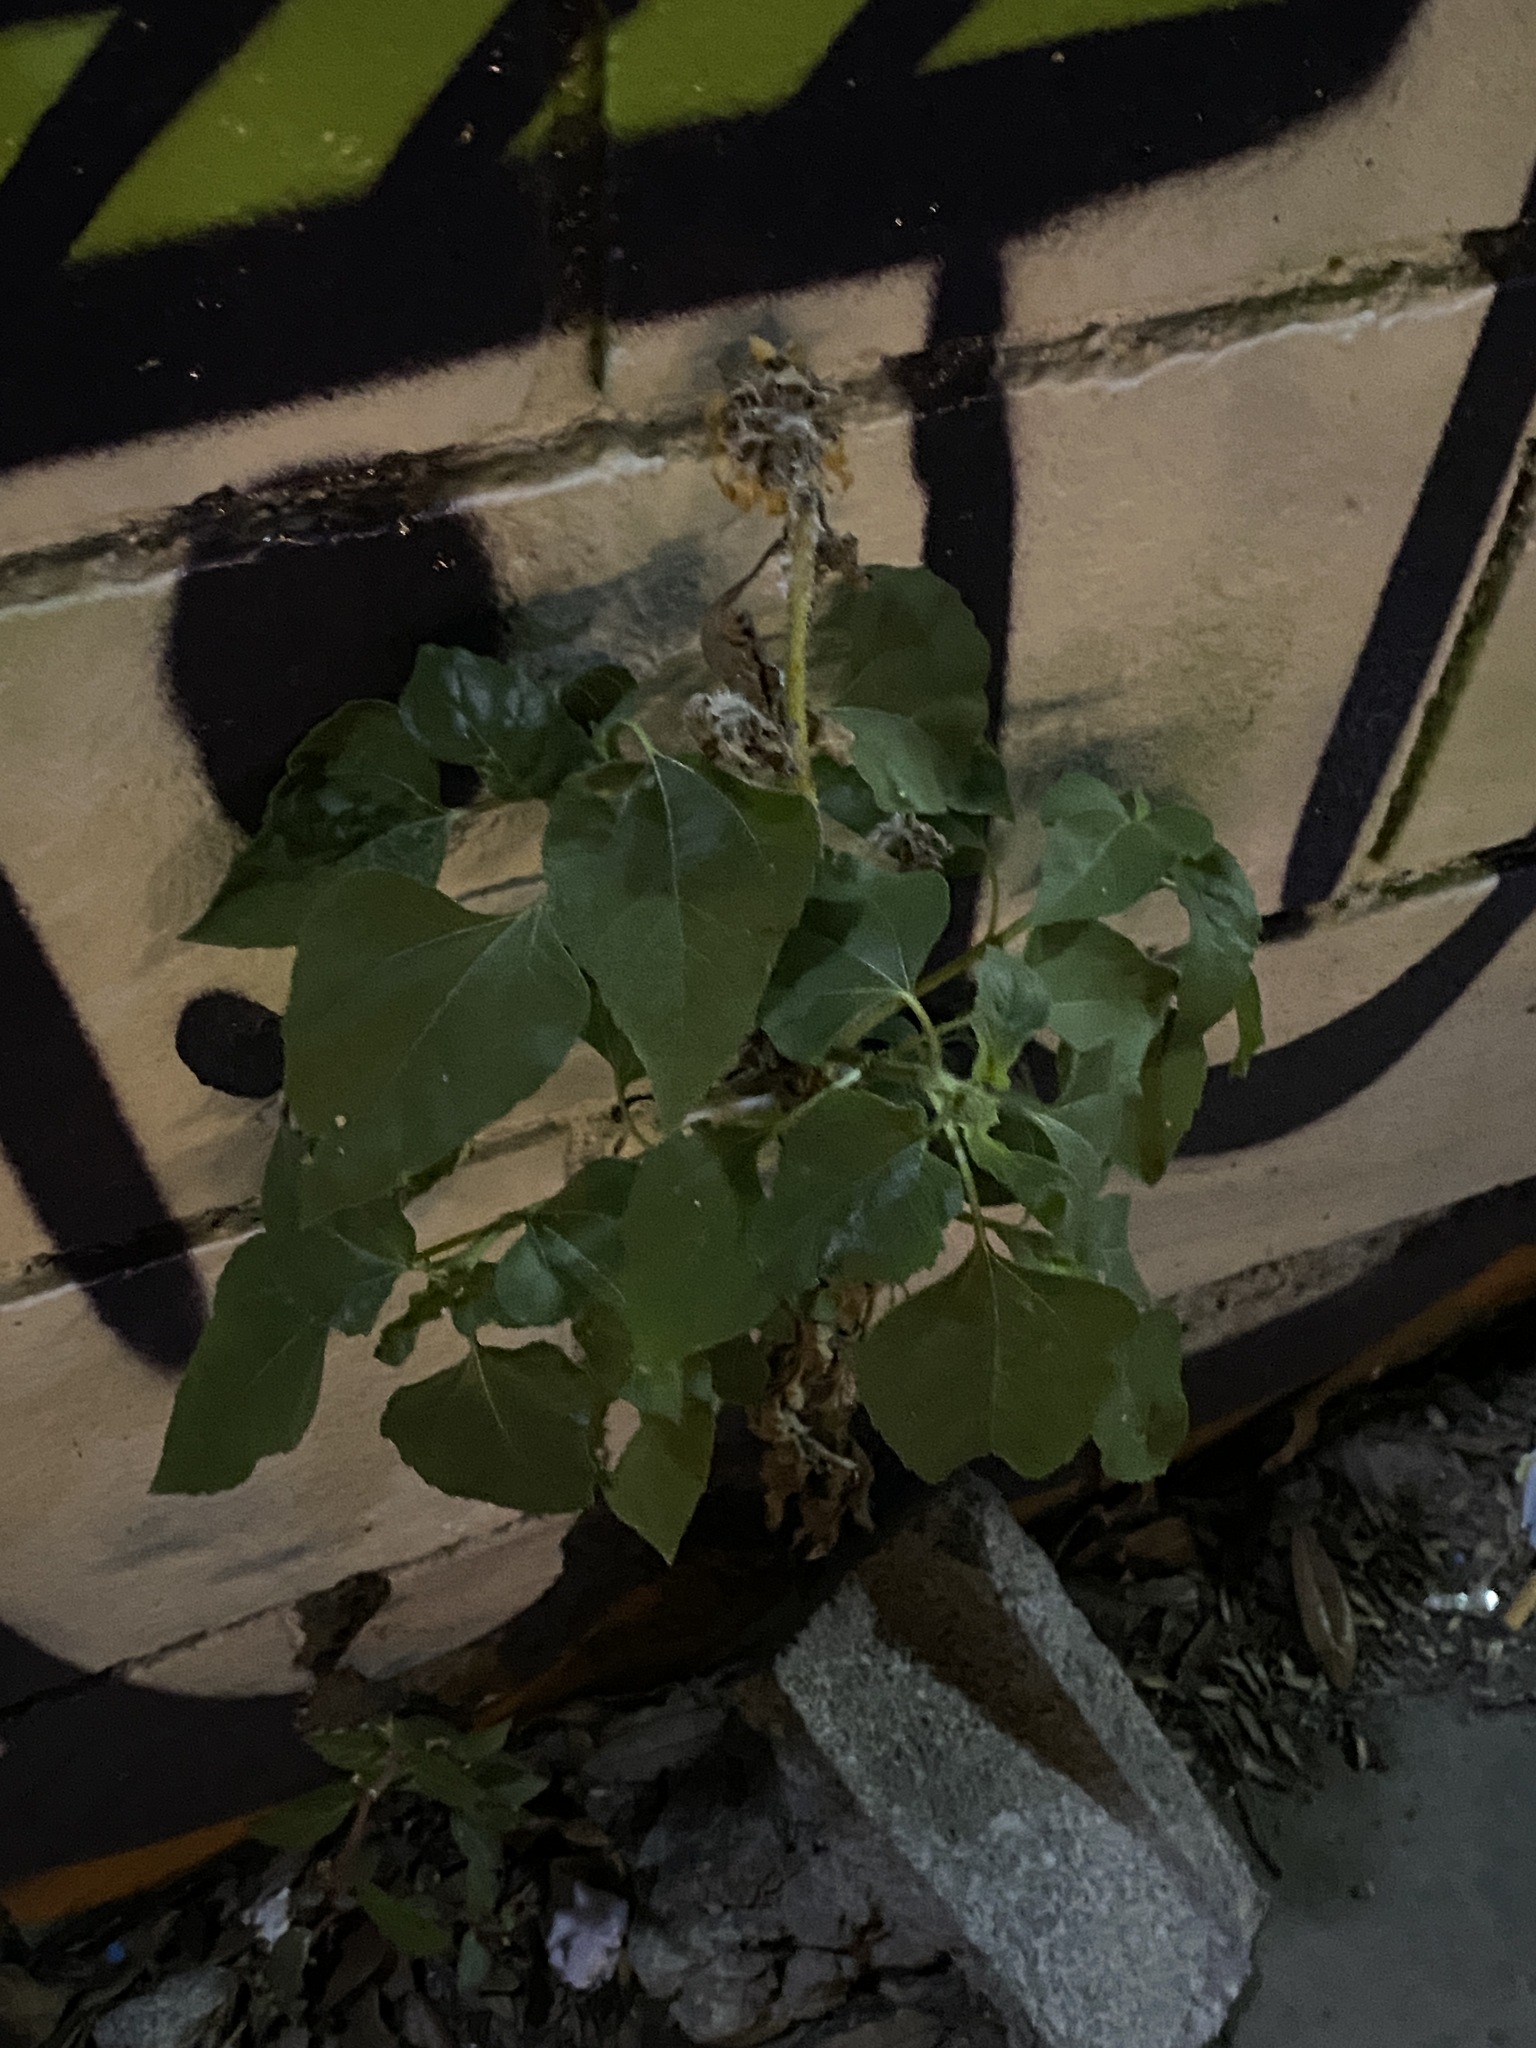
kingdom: Plantae
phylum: Tracheophyta
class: Magnoliopsida
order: Asterales
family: Asteraceae
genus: Helianthus
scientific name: Helianthus annuus
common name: Sunflower
